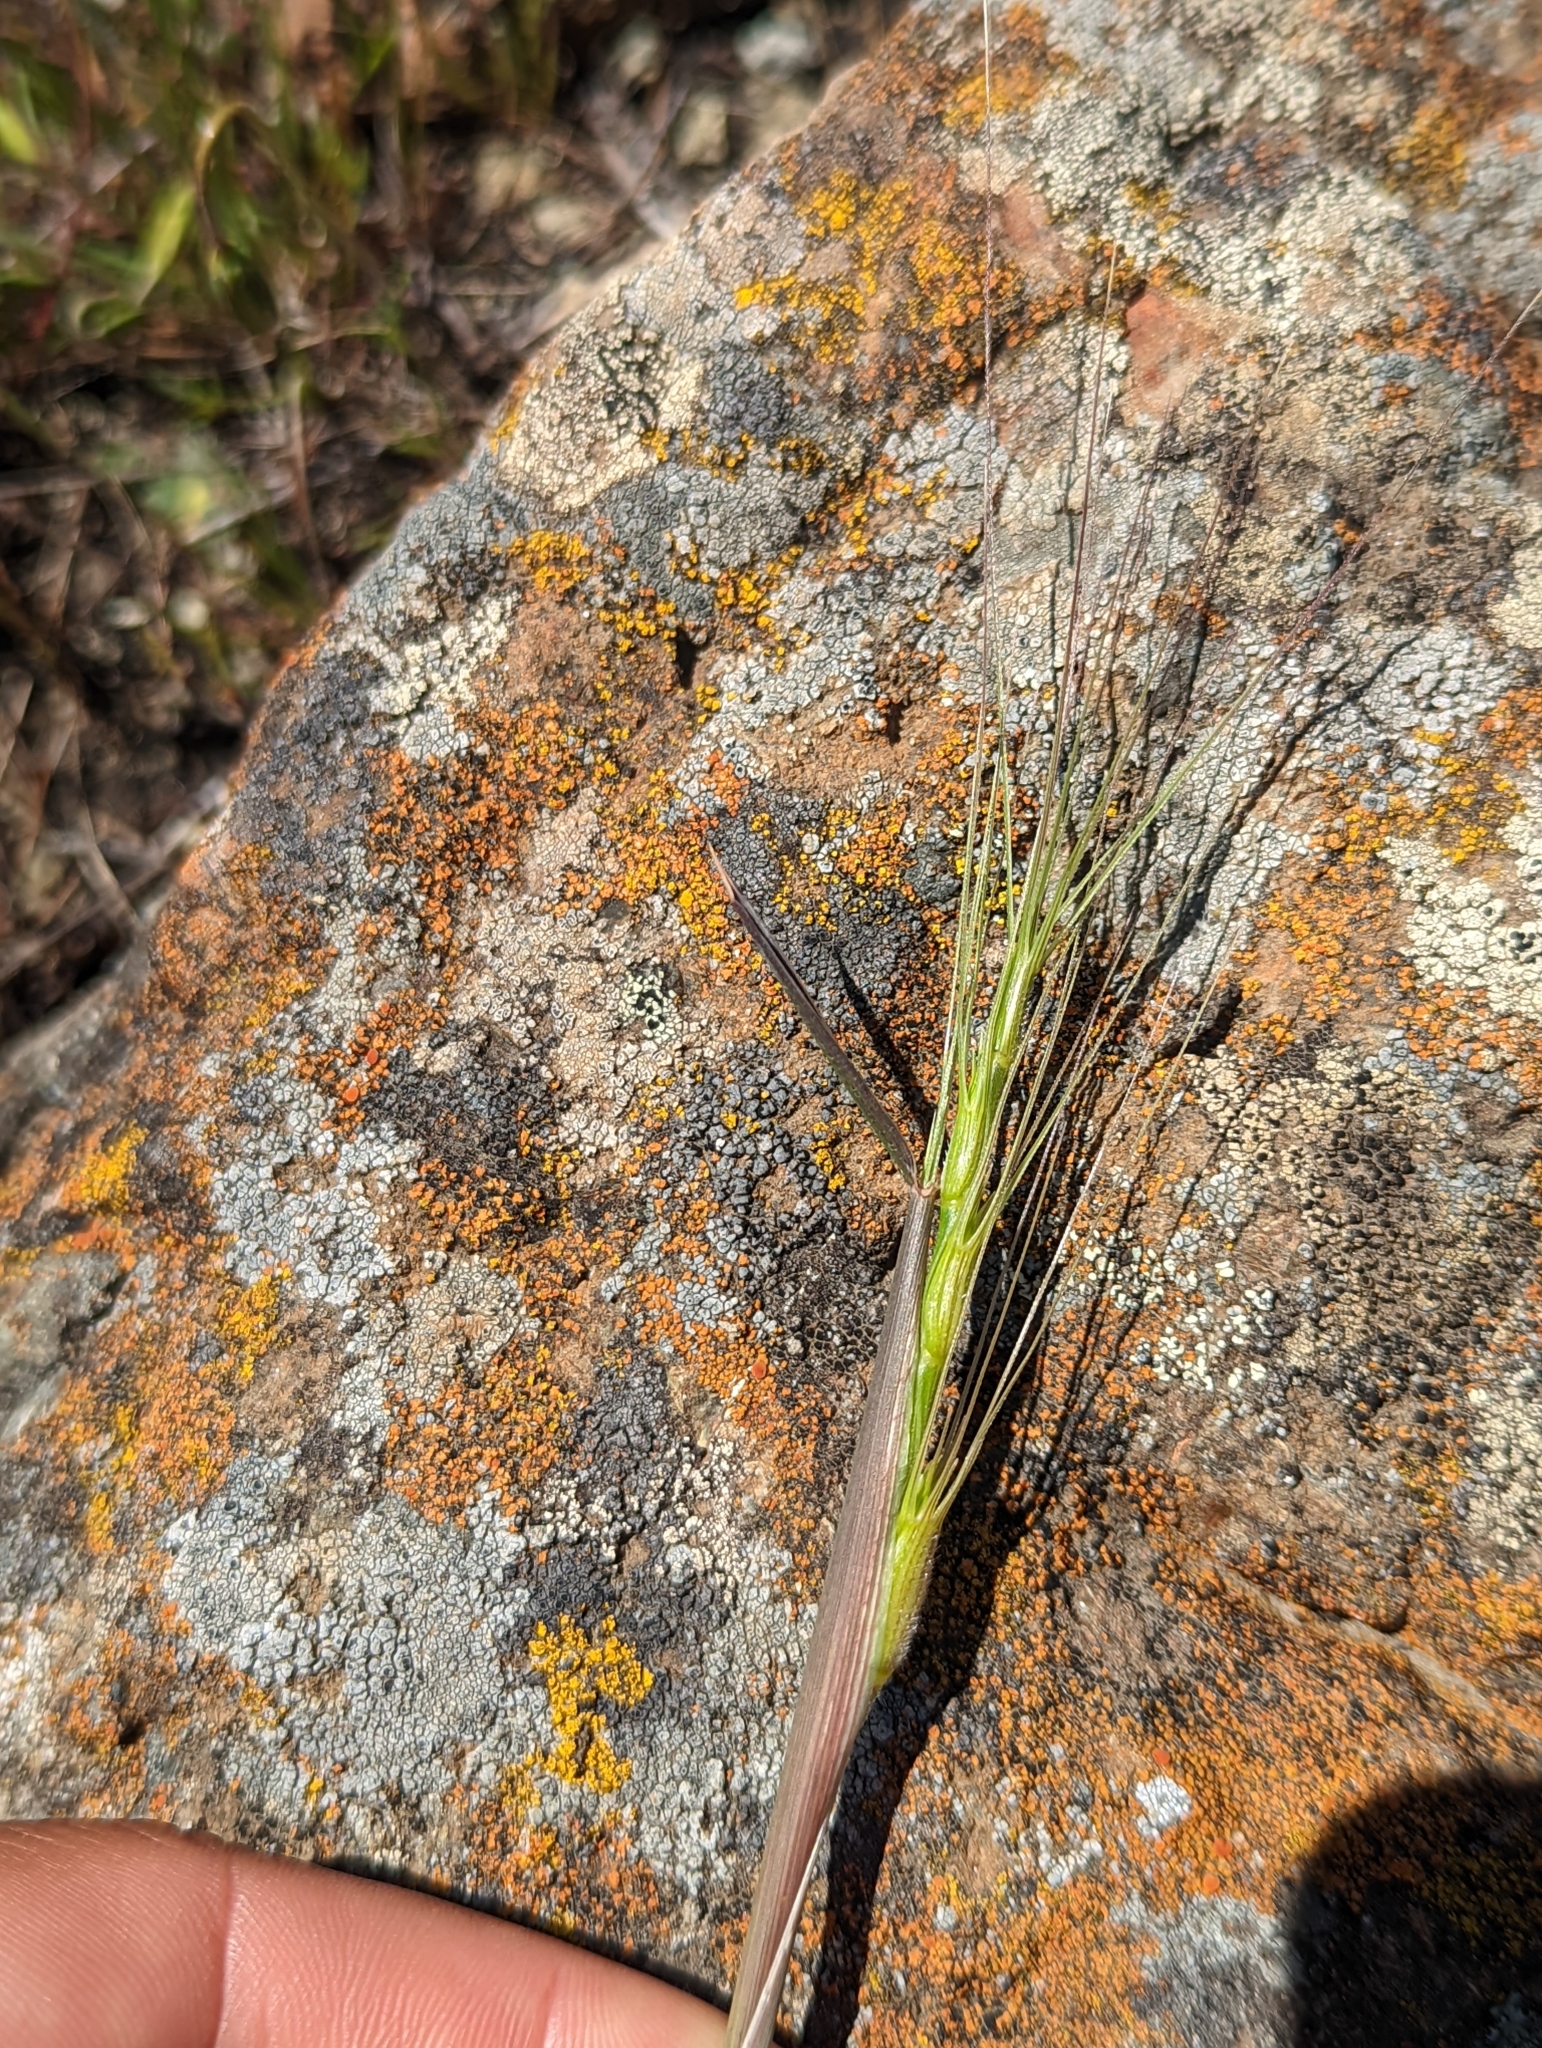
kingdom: Plantae
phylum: Tracheophyta
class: Liliopsida
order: Poales
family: Poaceae
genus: Aegilops
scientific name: Aegilops triuncialis
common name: Barb goat grass
